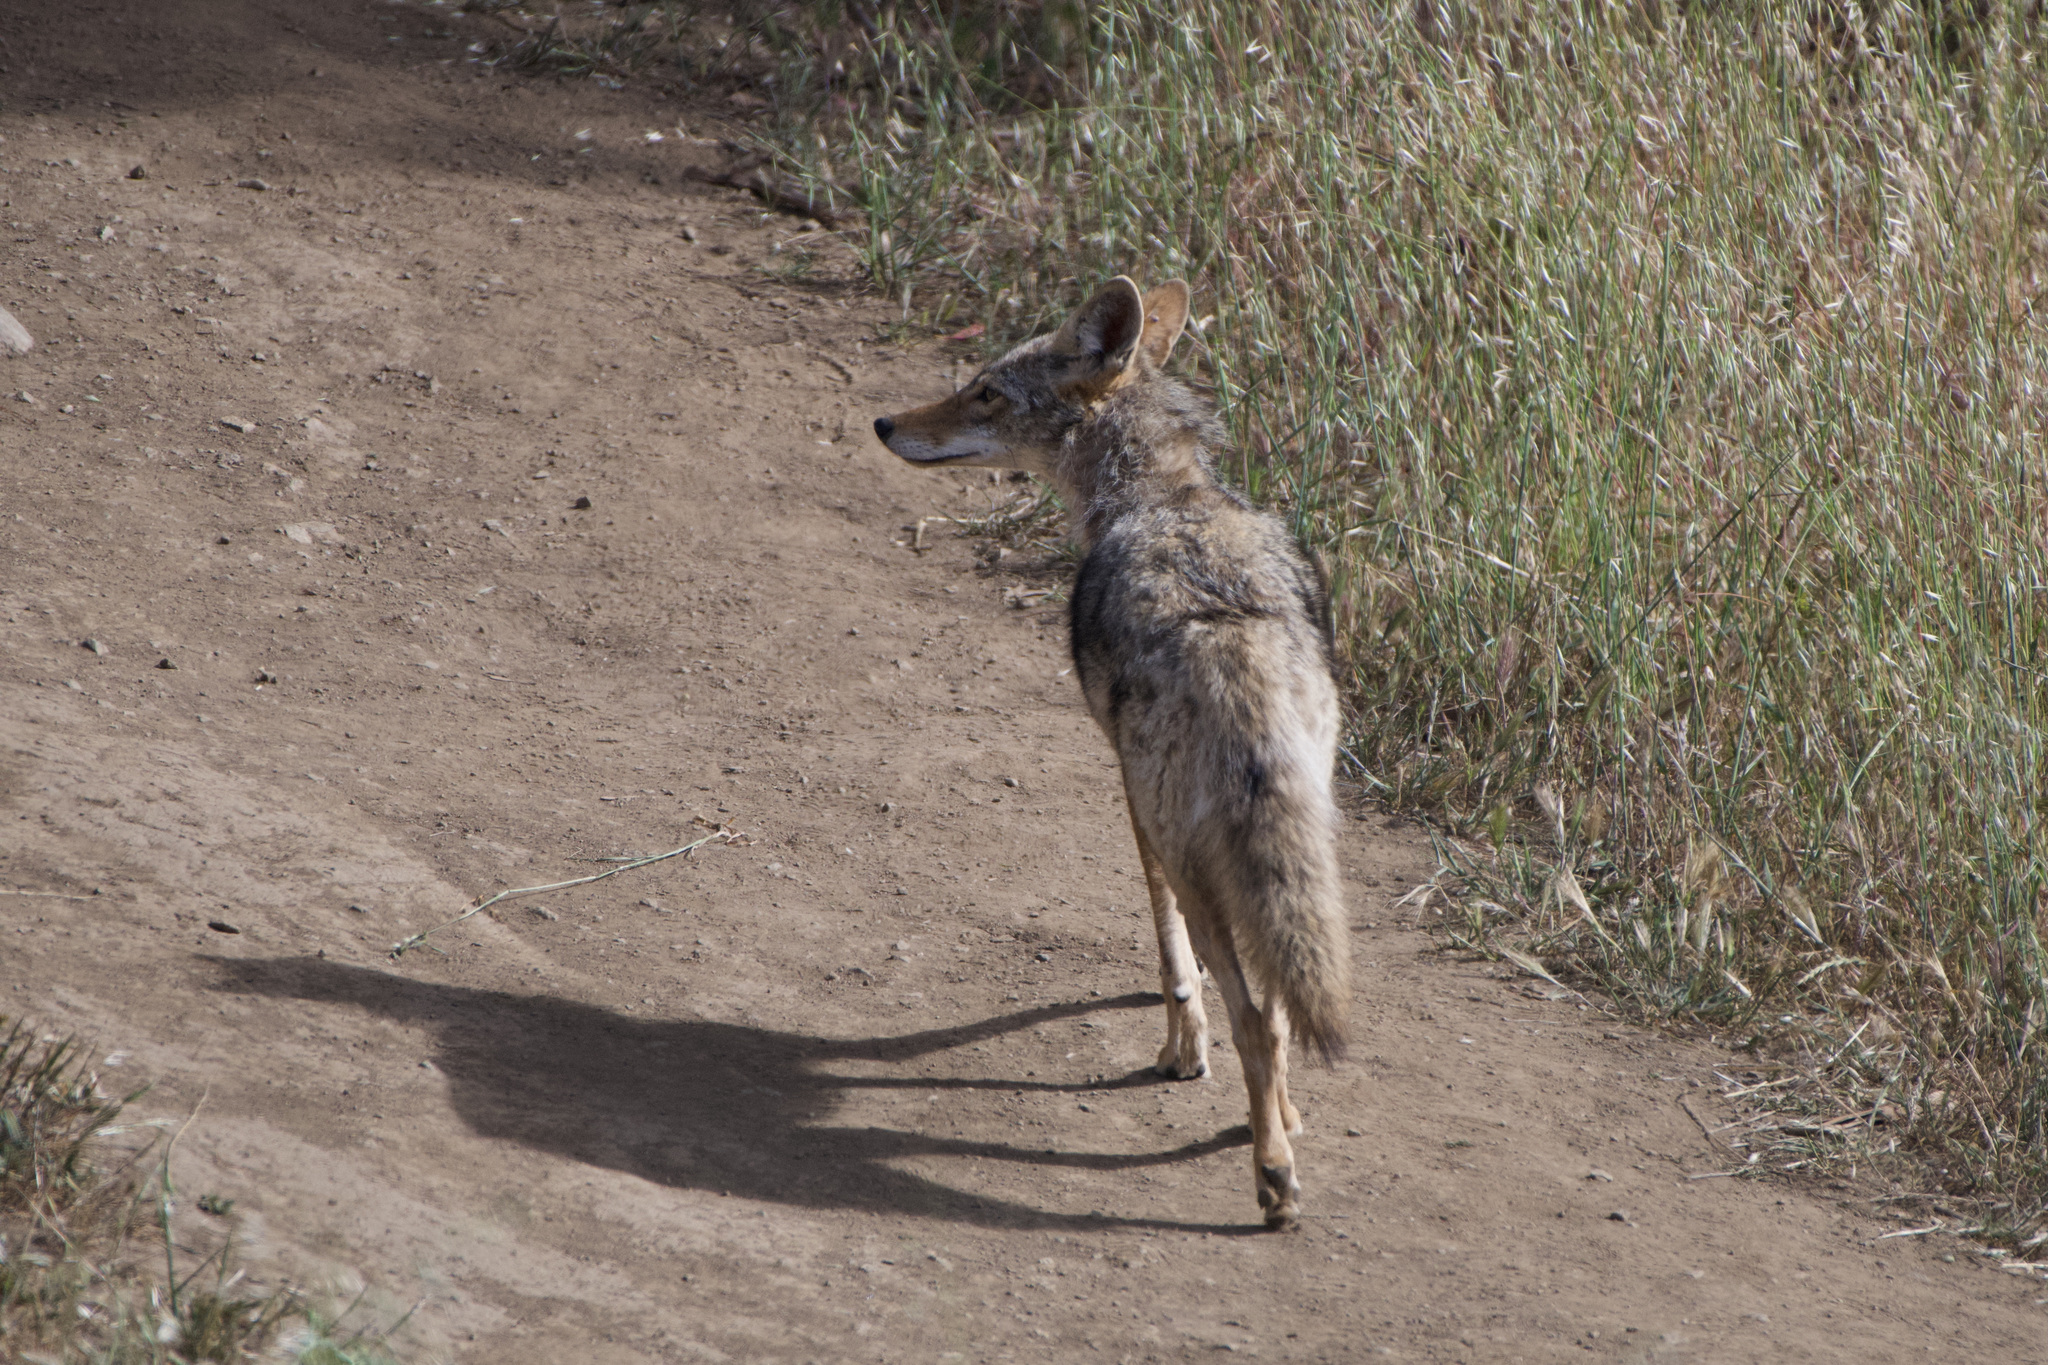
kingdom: Animalia
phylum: Chordata
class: Mammalia
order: Carnivora
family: Canidae
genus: Canis
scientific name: Canis latrans
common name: Coyote
